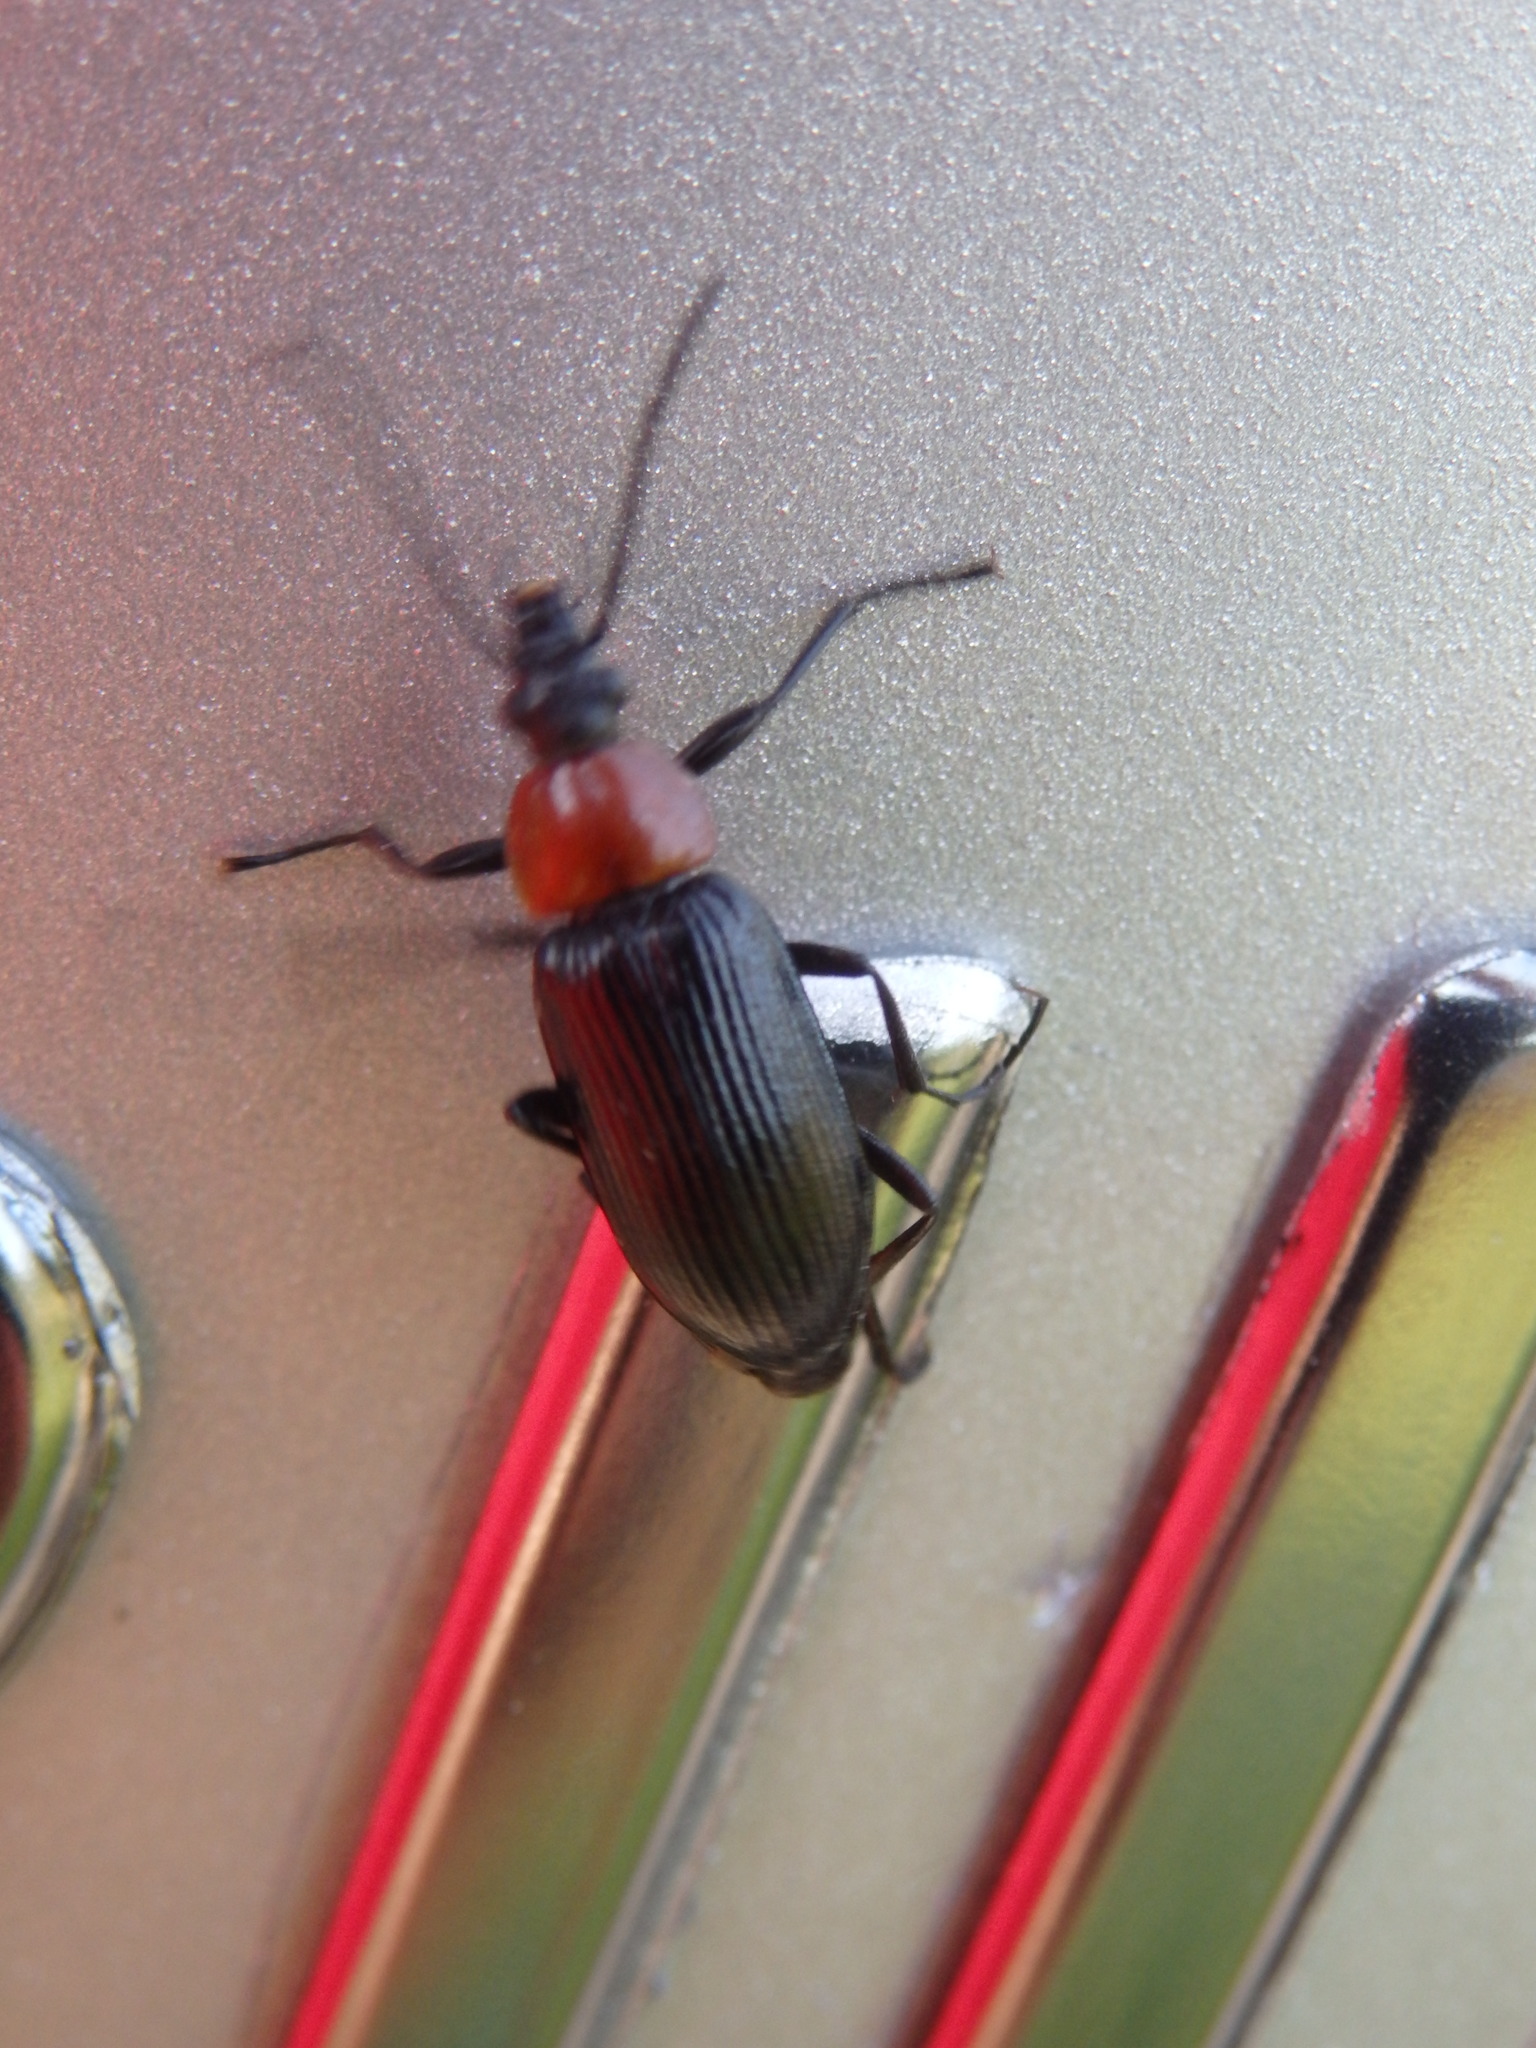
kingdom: Animalia
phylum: Arthropoda
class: Insecta
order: Coleoptera
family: Tenebrionidae
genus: Heliotaurus
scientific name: Heliotaurus ruficollis
